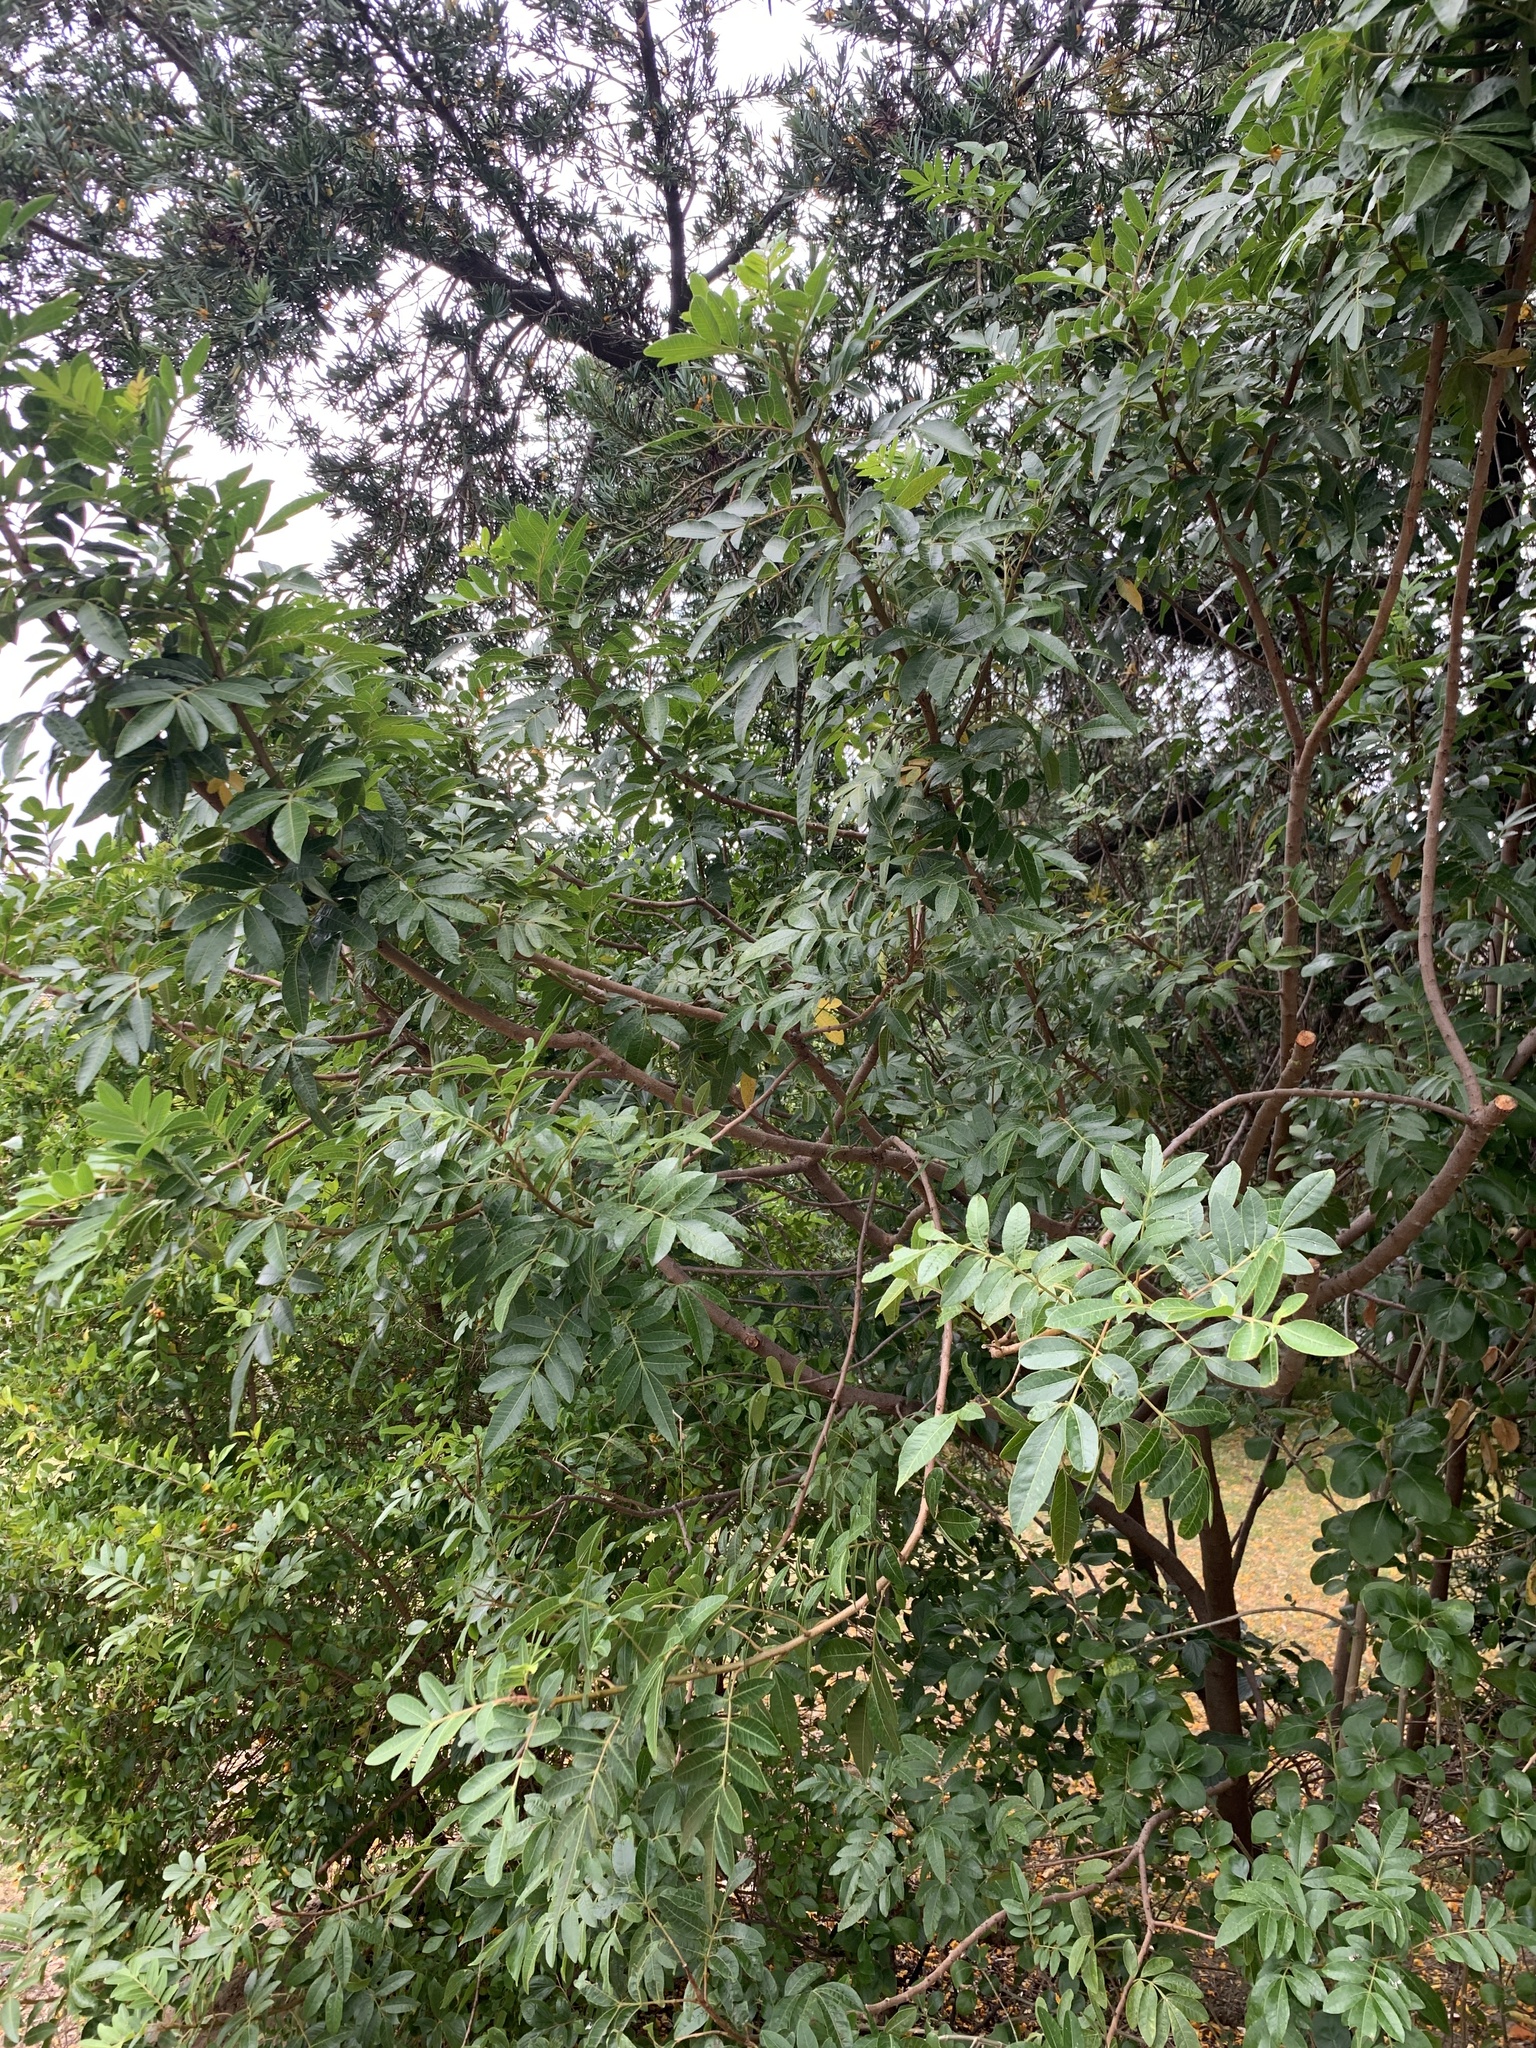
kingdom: Plantae
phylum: Tracheophyta
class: Magnoliopsida
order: Sapindales
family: Anacardiaceae
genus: Schinus
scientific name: Schinus terebinthifolia
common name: Brazilian peppertree
